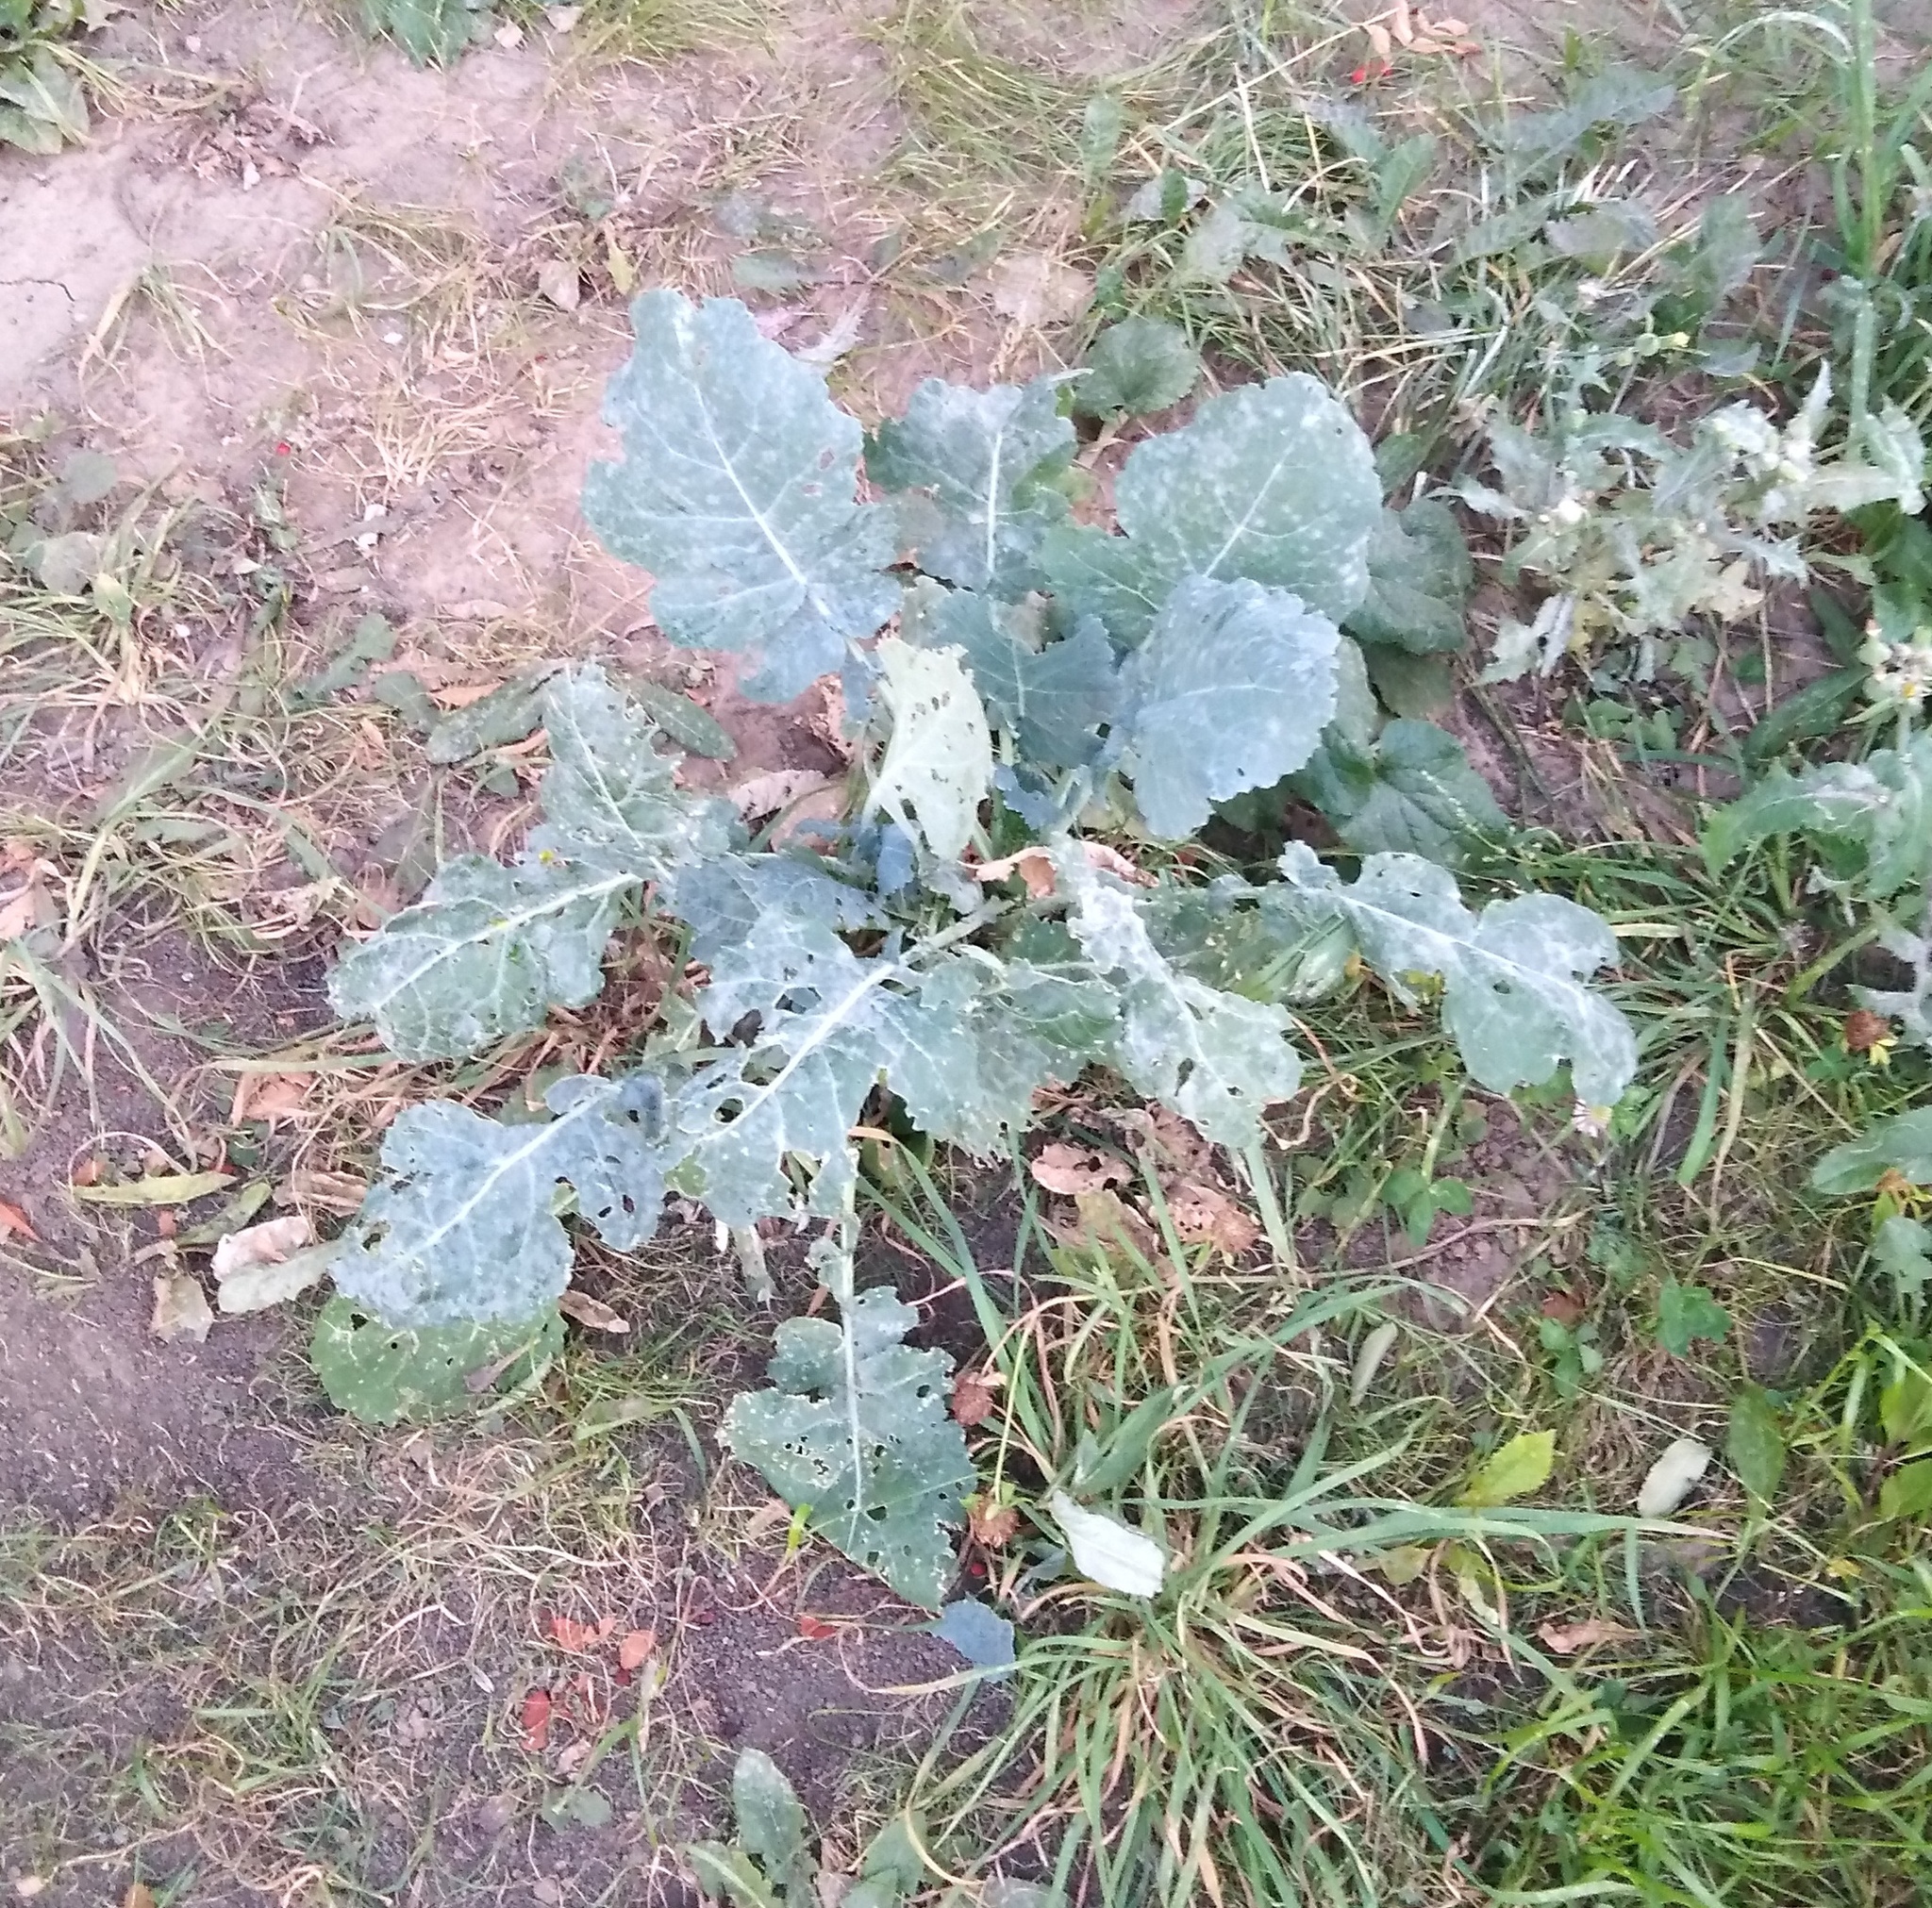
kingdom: Plantae
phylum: Tracheophyta
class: Magnoliopsida
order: Brassicales
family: Brassicaceae
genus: Brassica
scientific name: Brassica oleracea
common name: Cabbage
